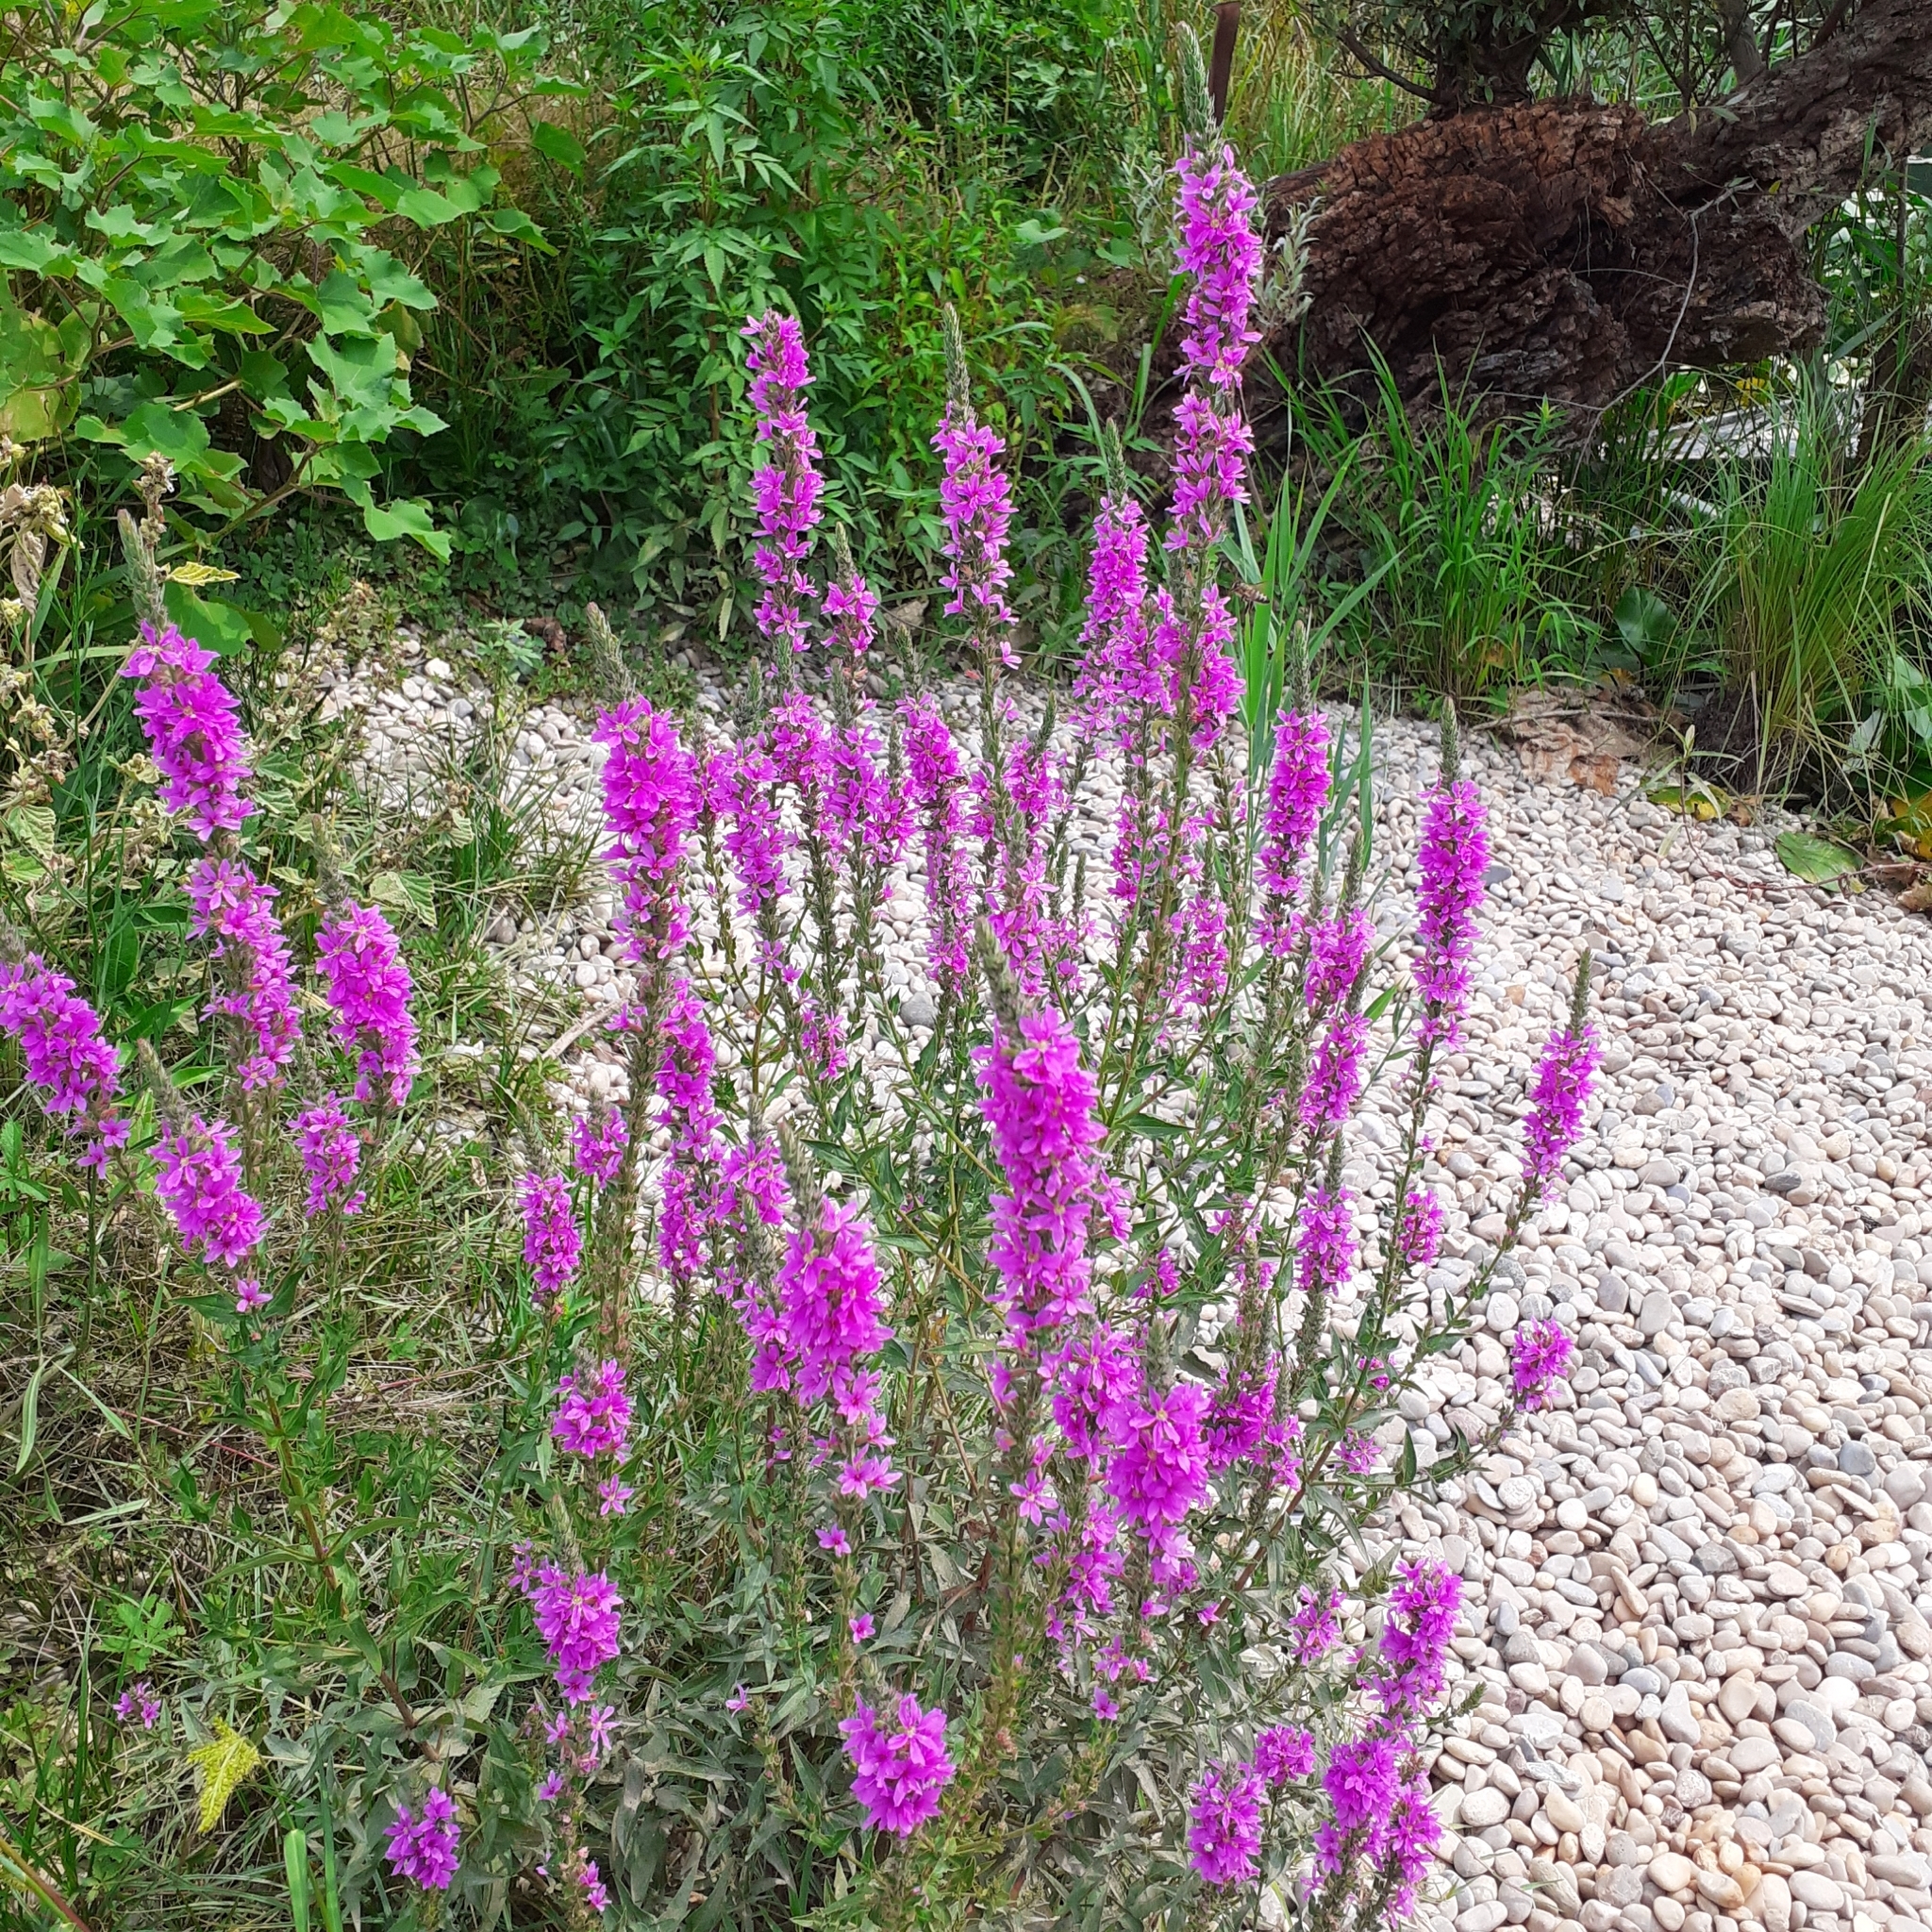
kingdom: Plantae
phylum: Tracheophyta
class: Magnoliopsida
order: Myrtales
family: Lythraceae
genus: Lythrum
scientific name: Lythrum salicaria
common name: Purple loosestrife
